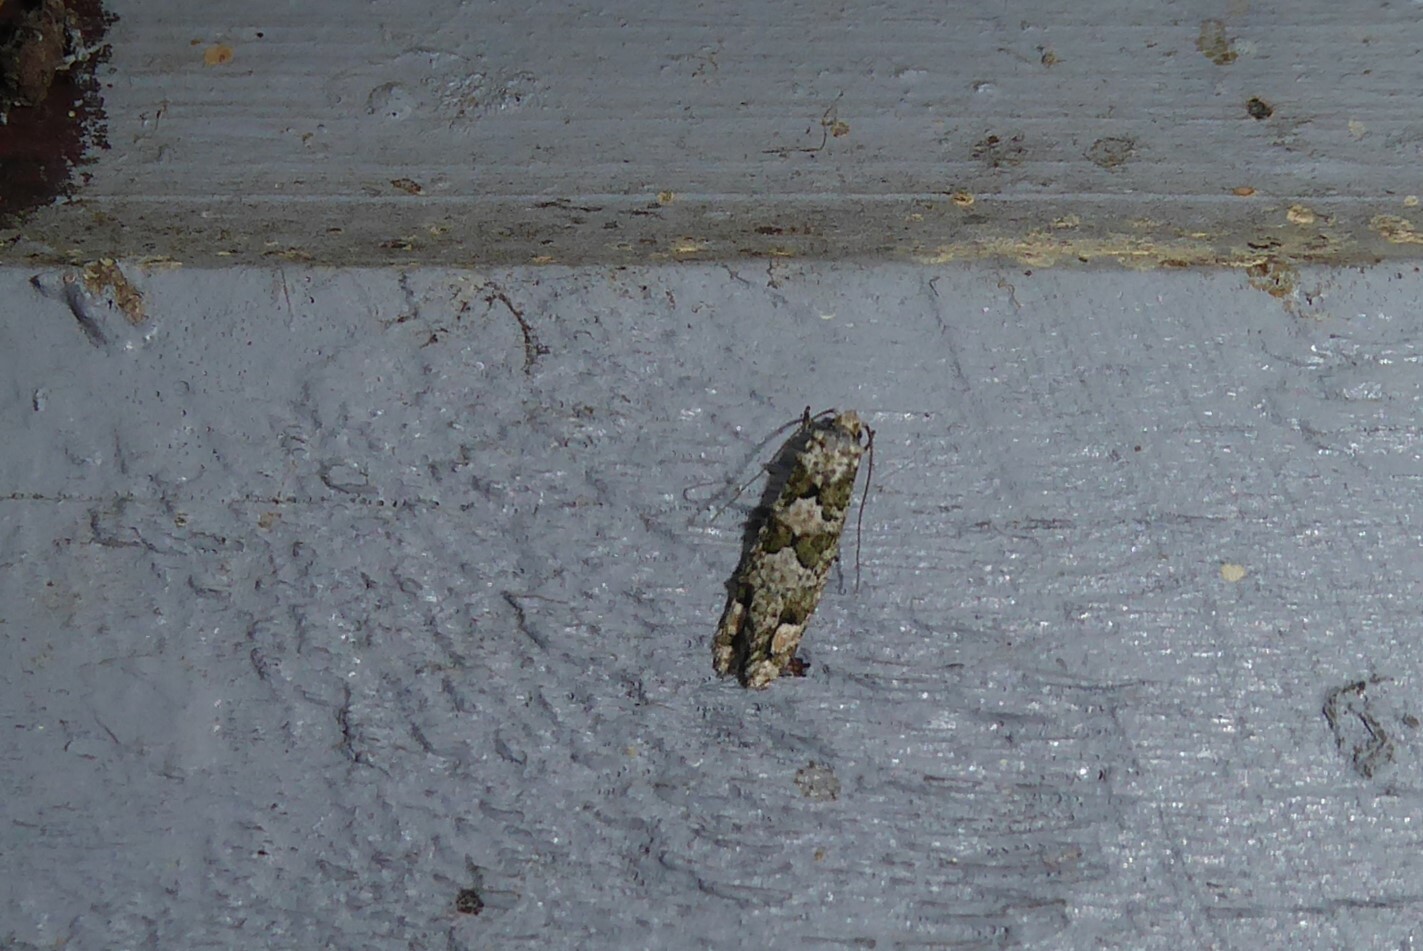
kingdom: Animalia
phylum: Arthropoda
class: Insecta
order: Lepidoptera
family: Tineidae
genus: Lysiphragma
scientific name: Lysiphragma howesii
